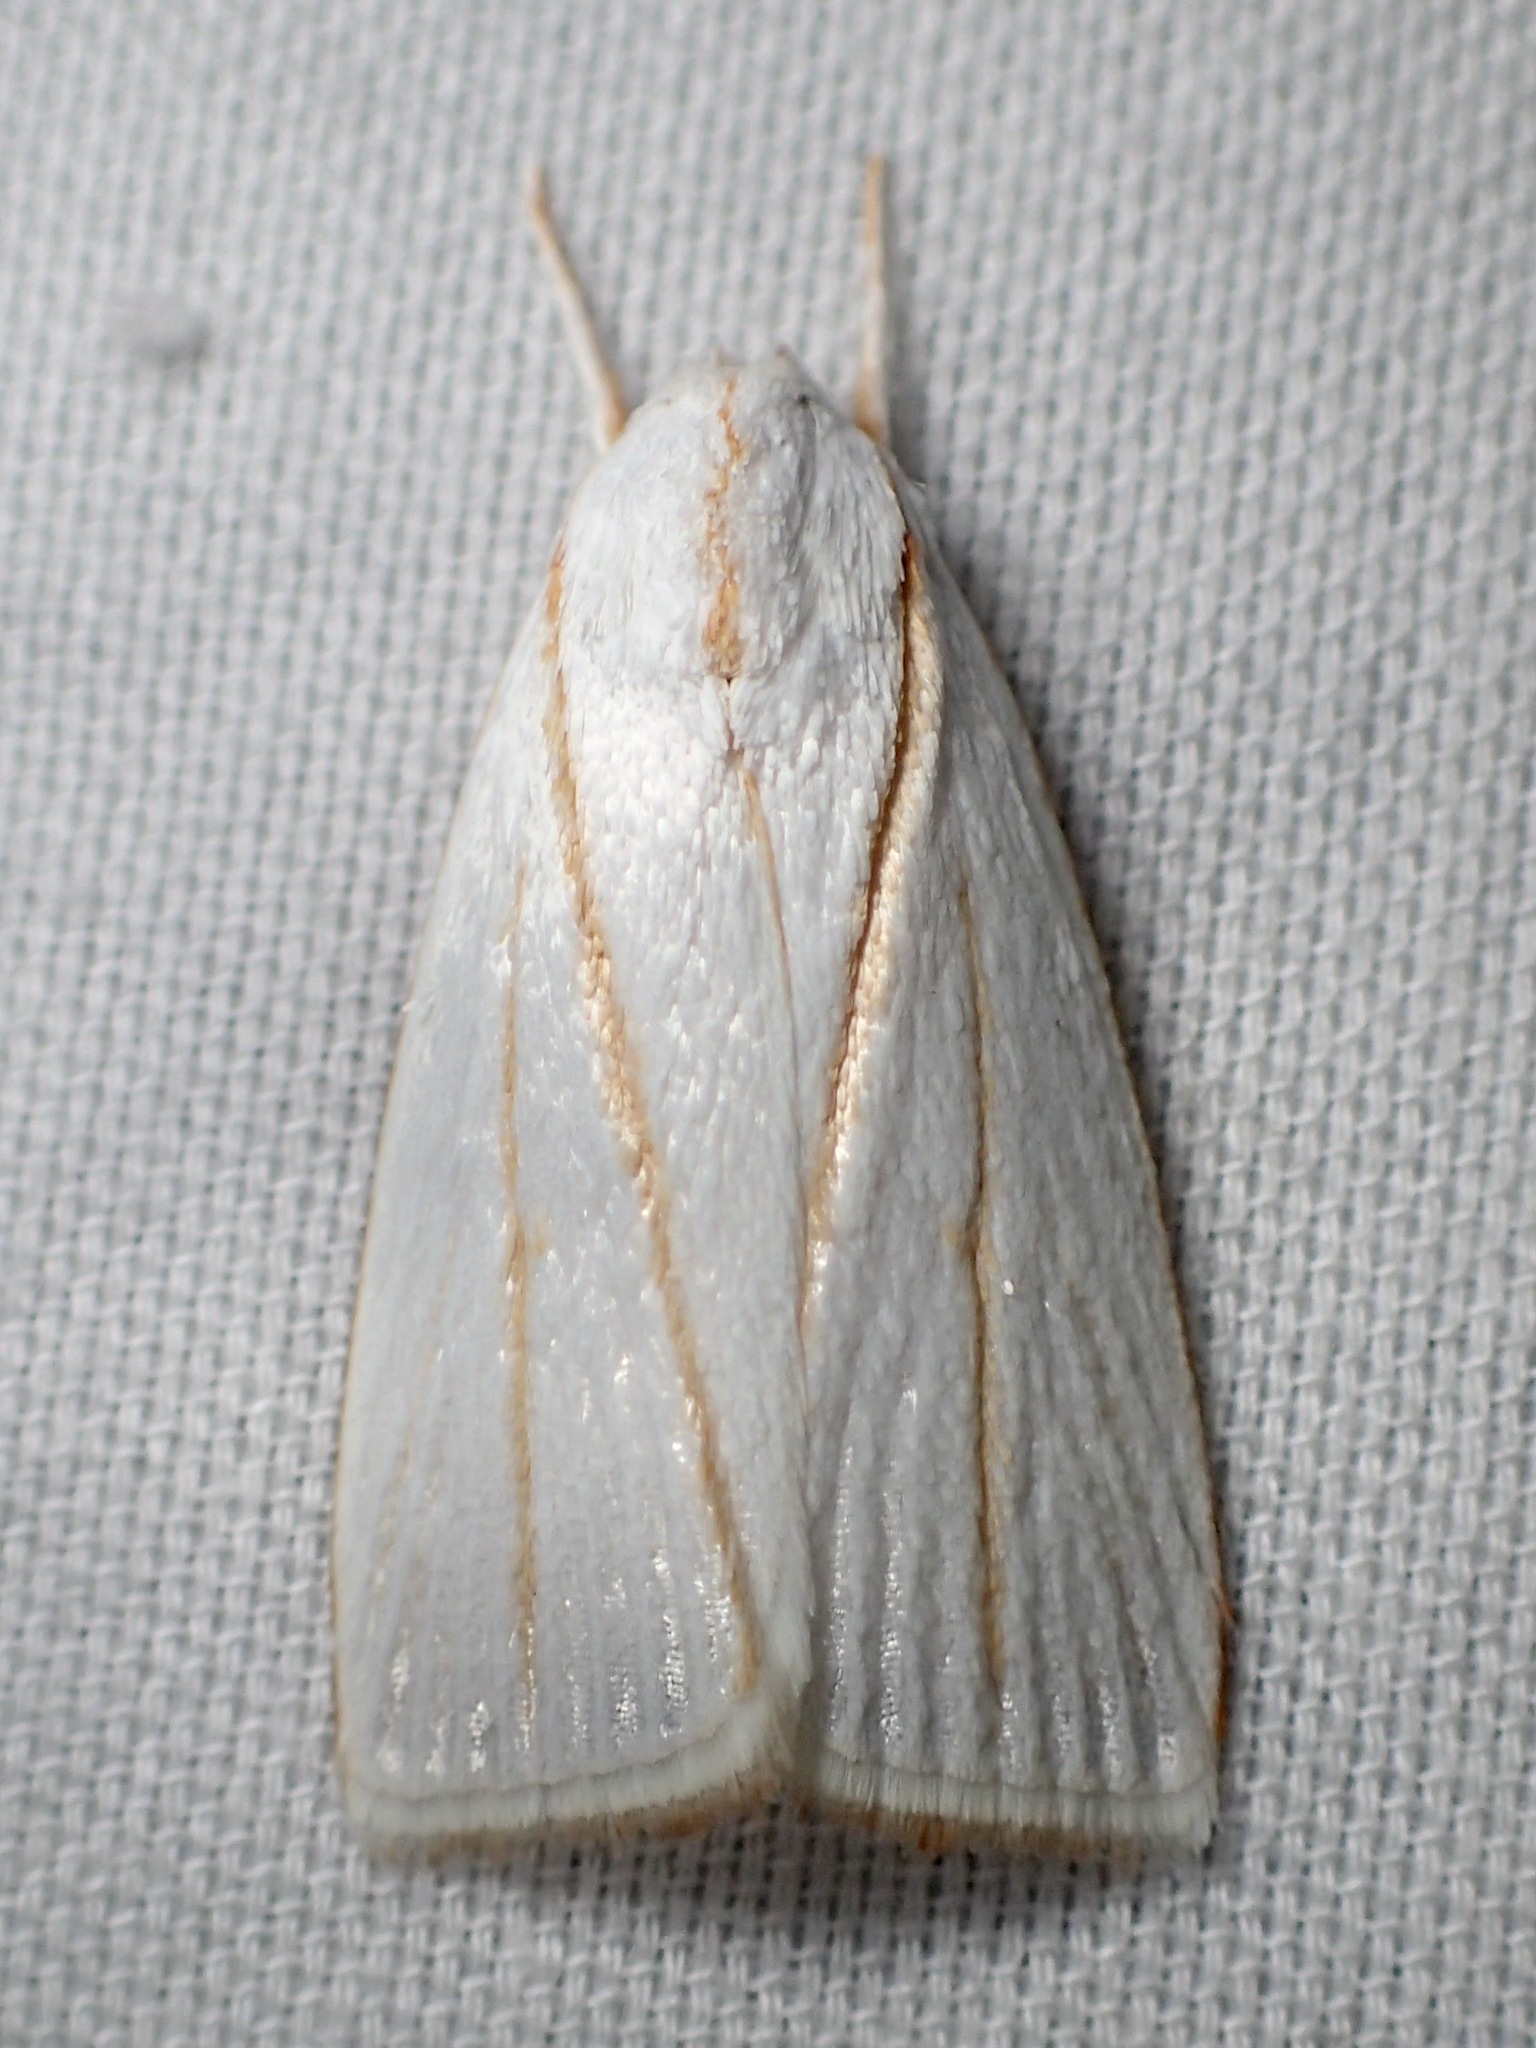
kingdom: Animalia
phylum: Arthropoda
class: Insecta
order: Lepidoptera
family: Xyloryctidae
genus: Cryptophasa
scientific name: Cryptophasa flavolineata
